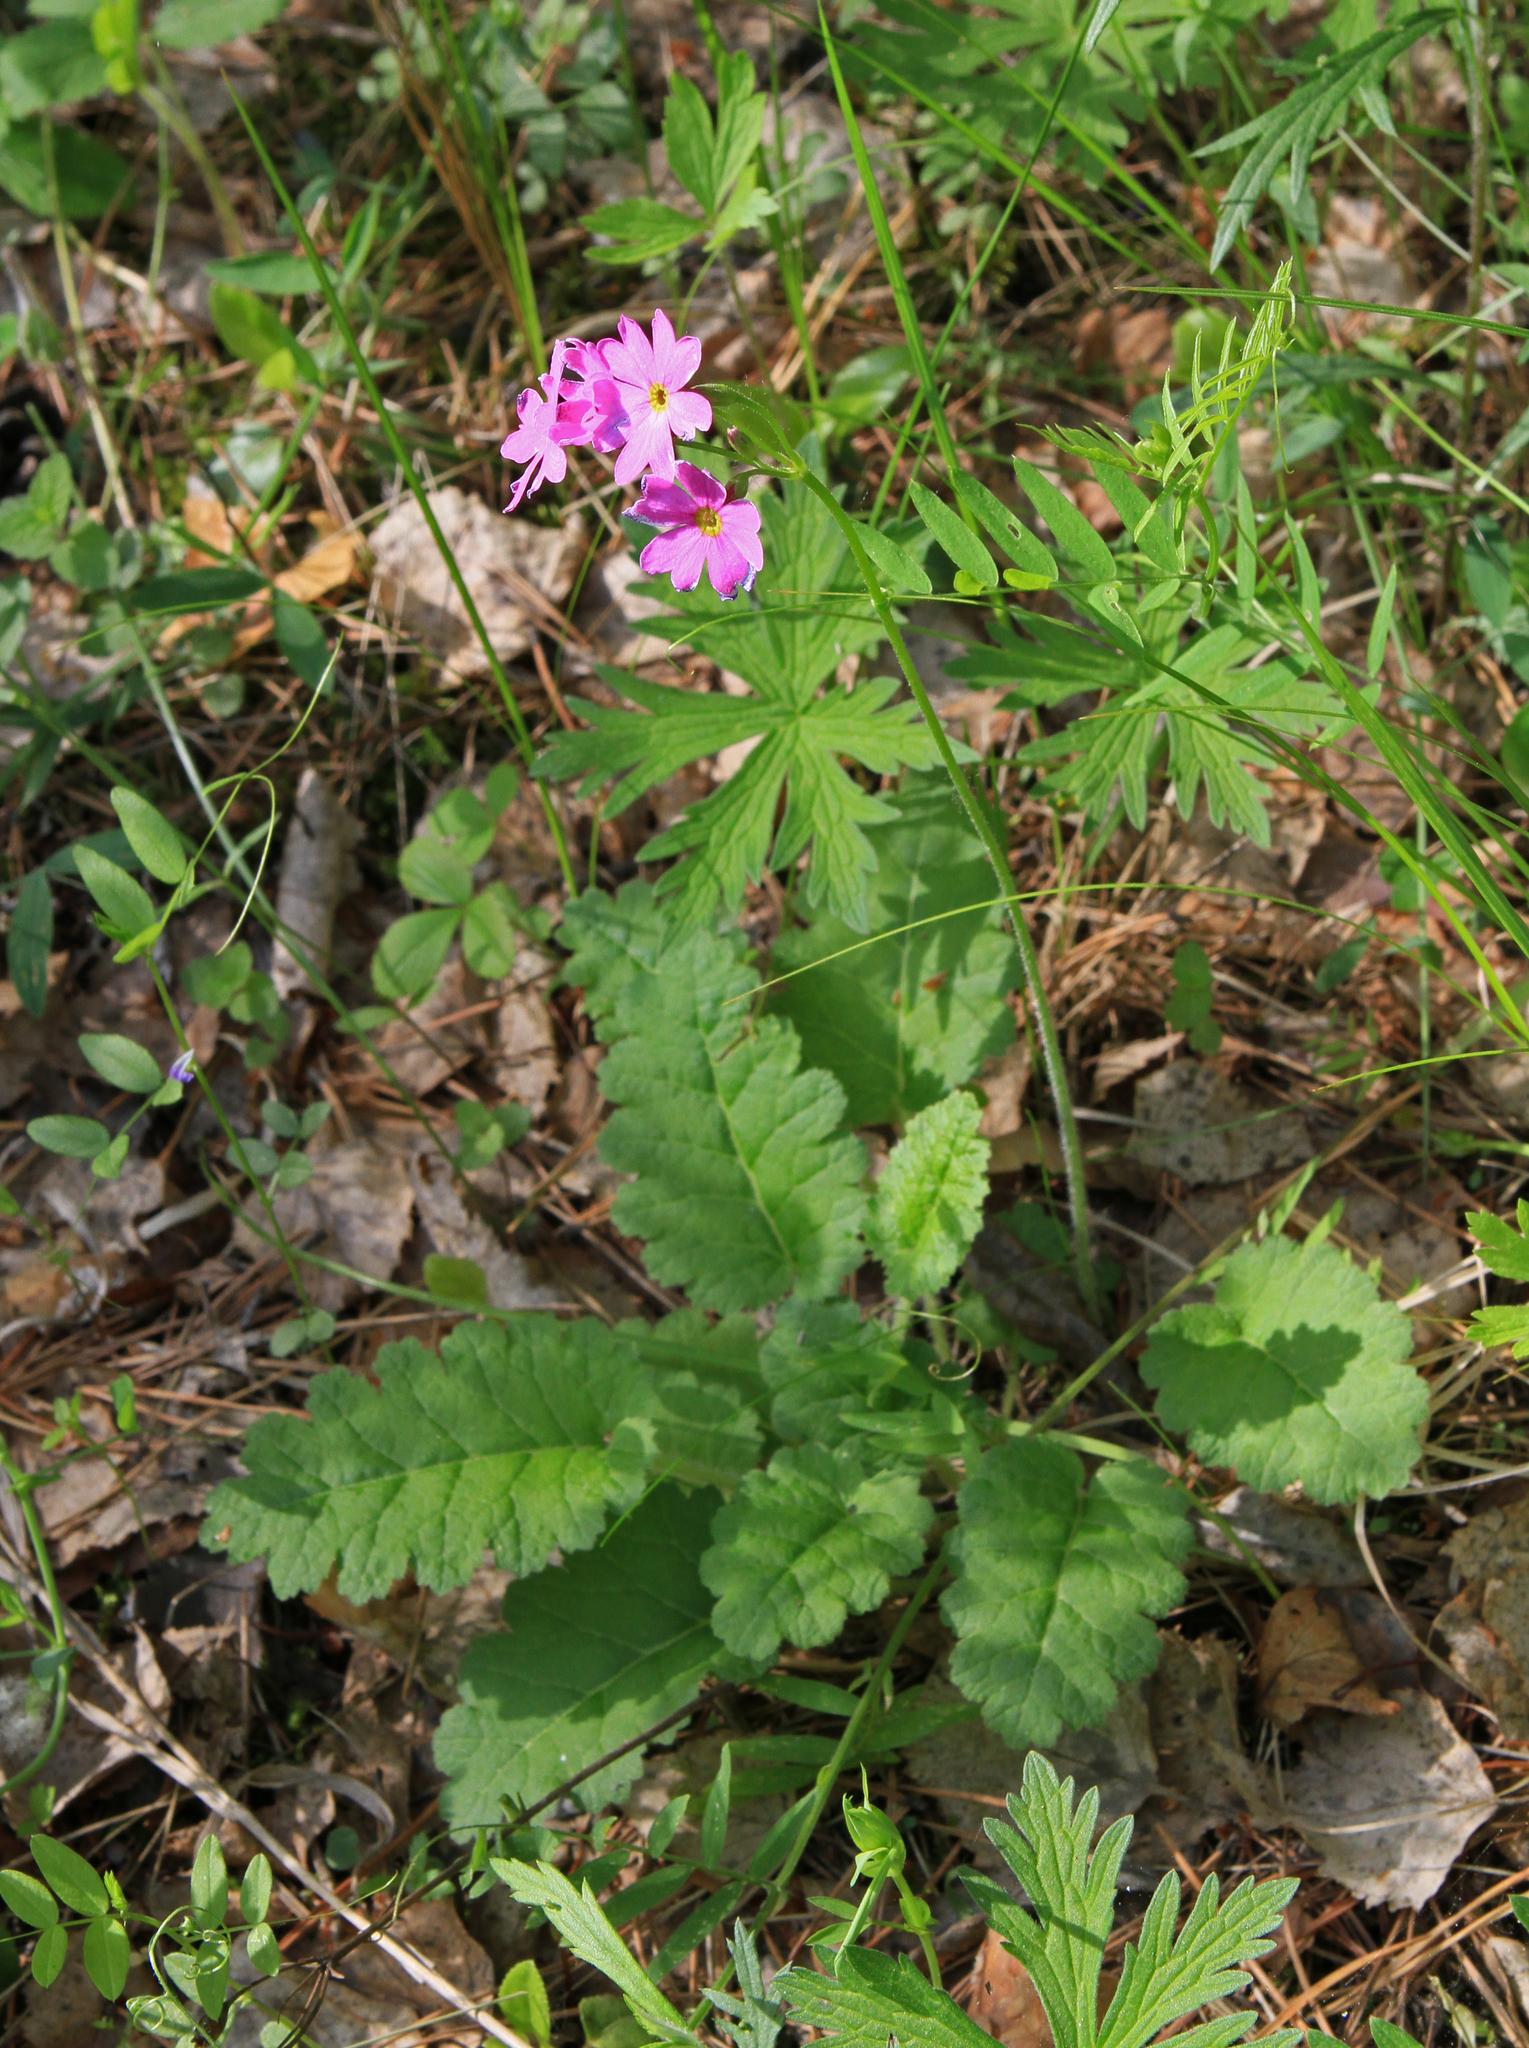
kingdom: Plantae
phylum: Tracheophyta
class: Magnoliopsida
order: Ericales
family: Primulaceae
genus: Primula
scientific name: Primula cortusoides
